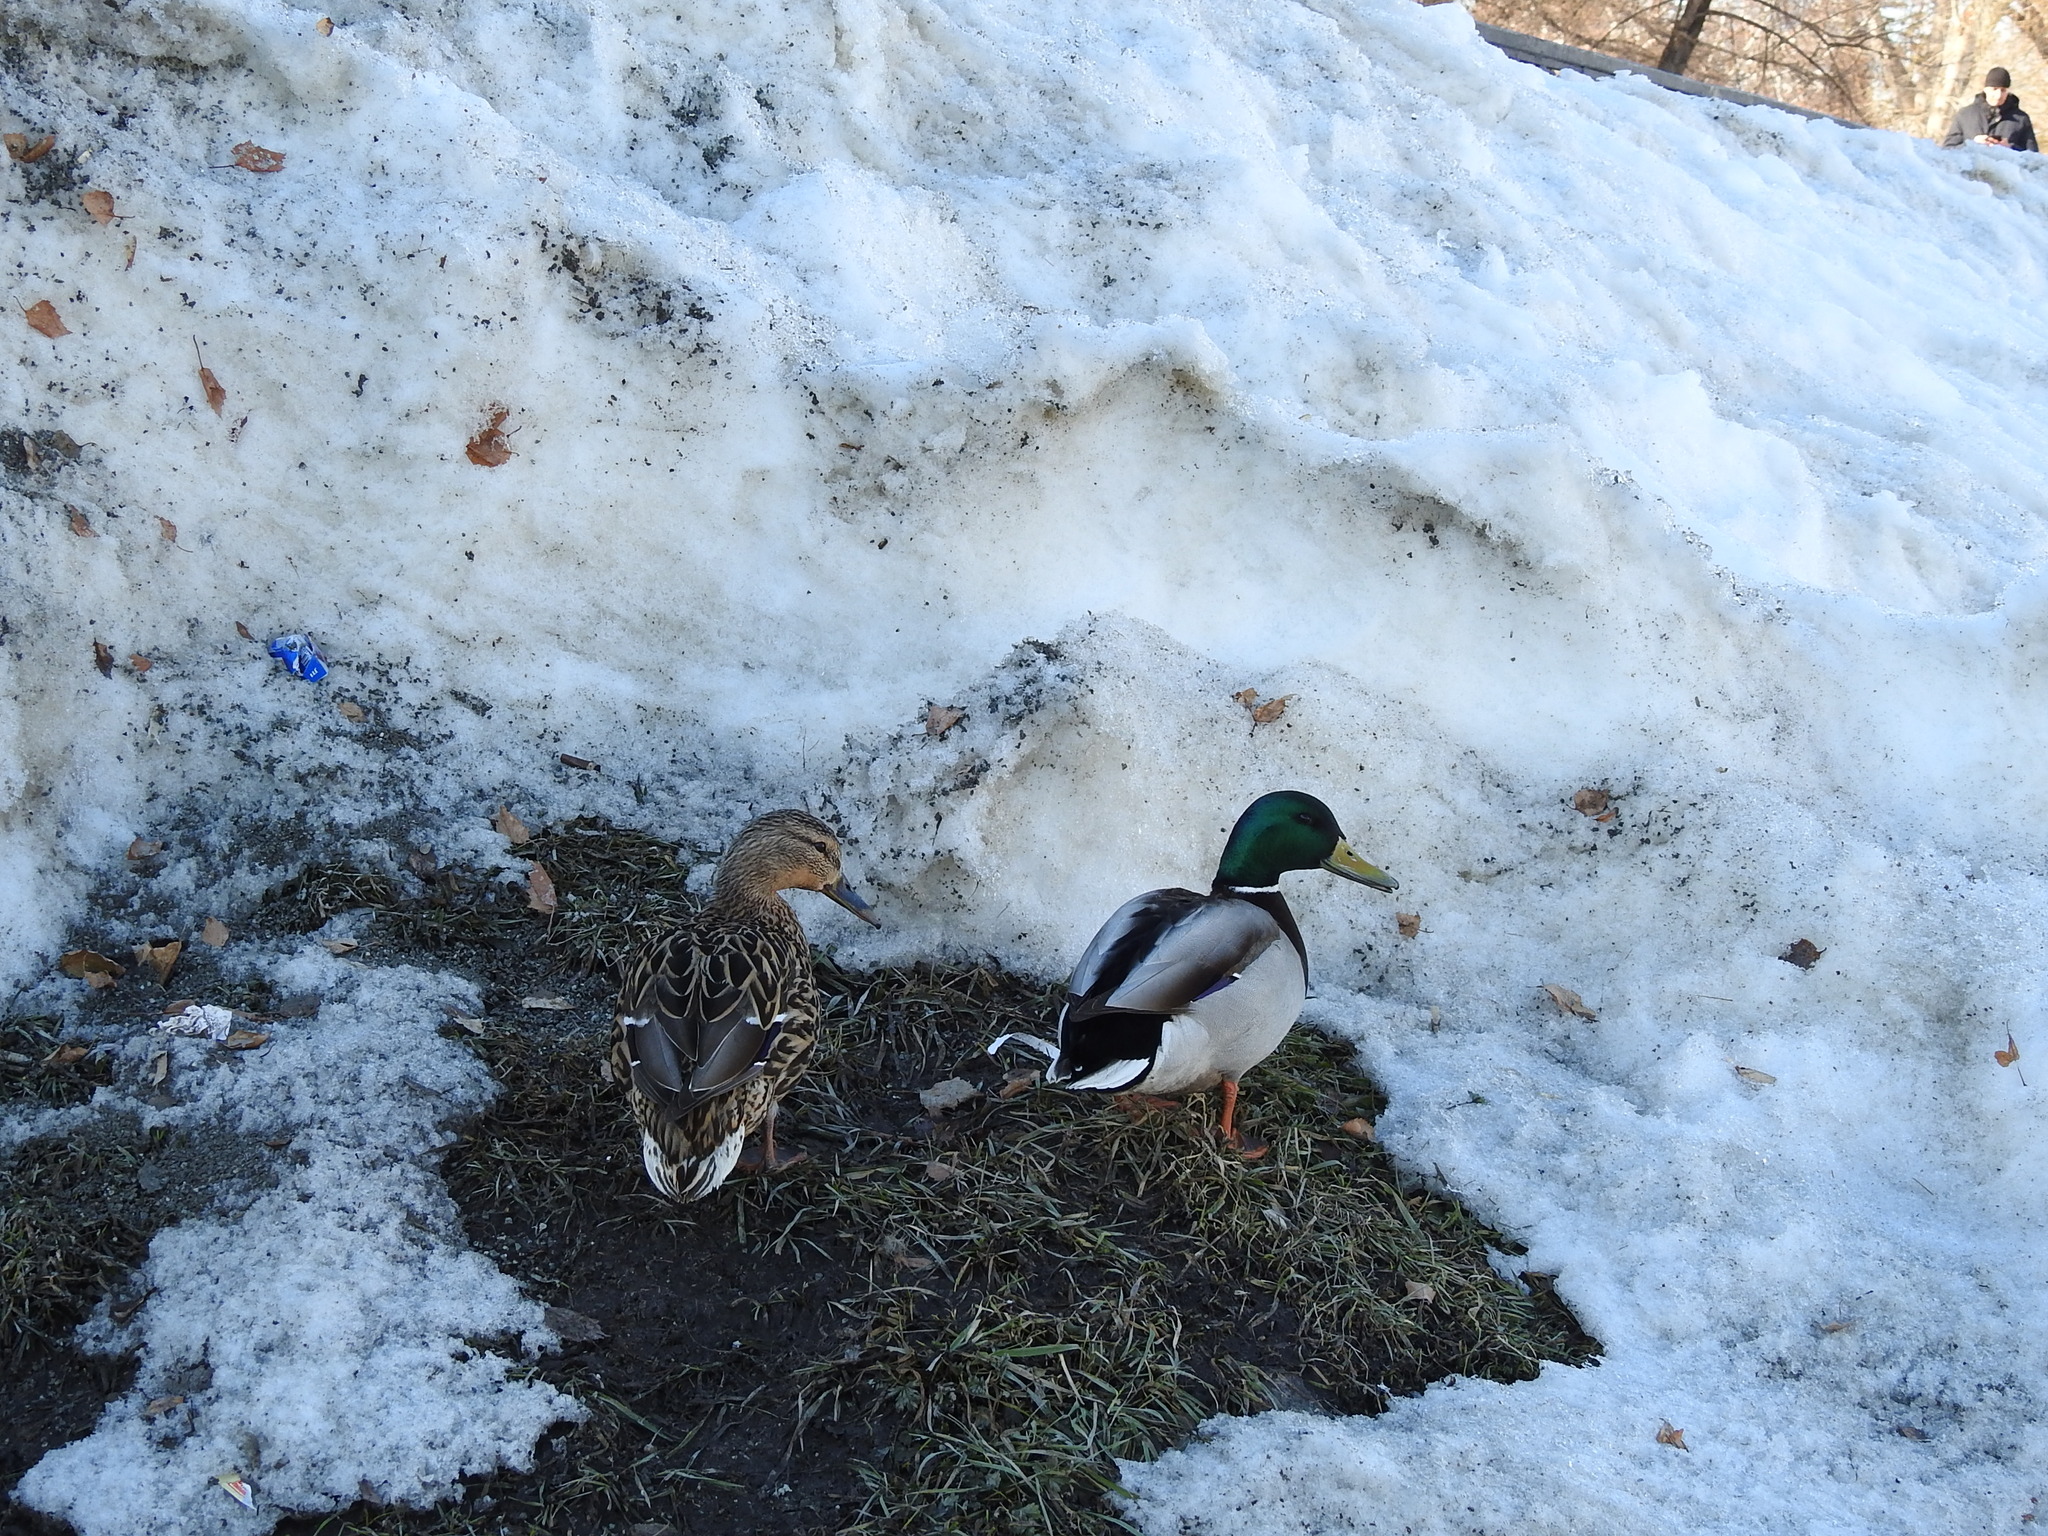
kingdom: Animalia
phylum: Chordata
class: Aves
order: Anseriformes
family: Anatidae
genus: Anas
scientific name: Anas platyrhynchos
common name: Mallard
